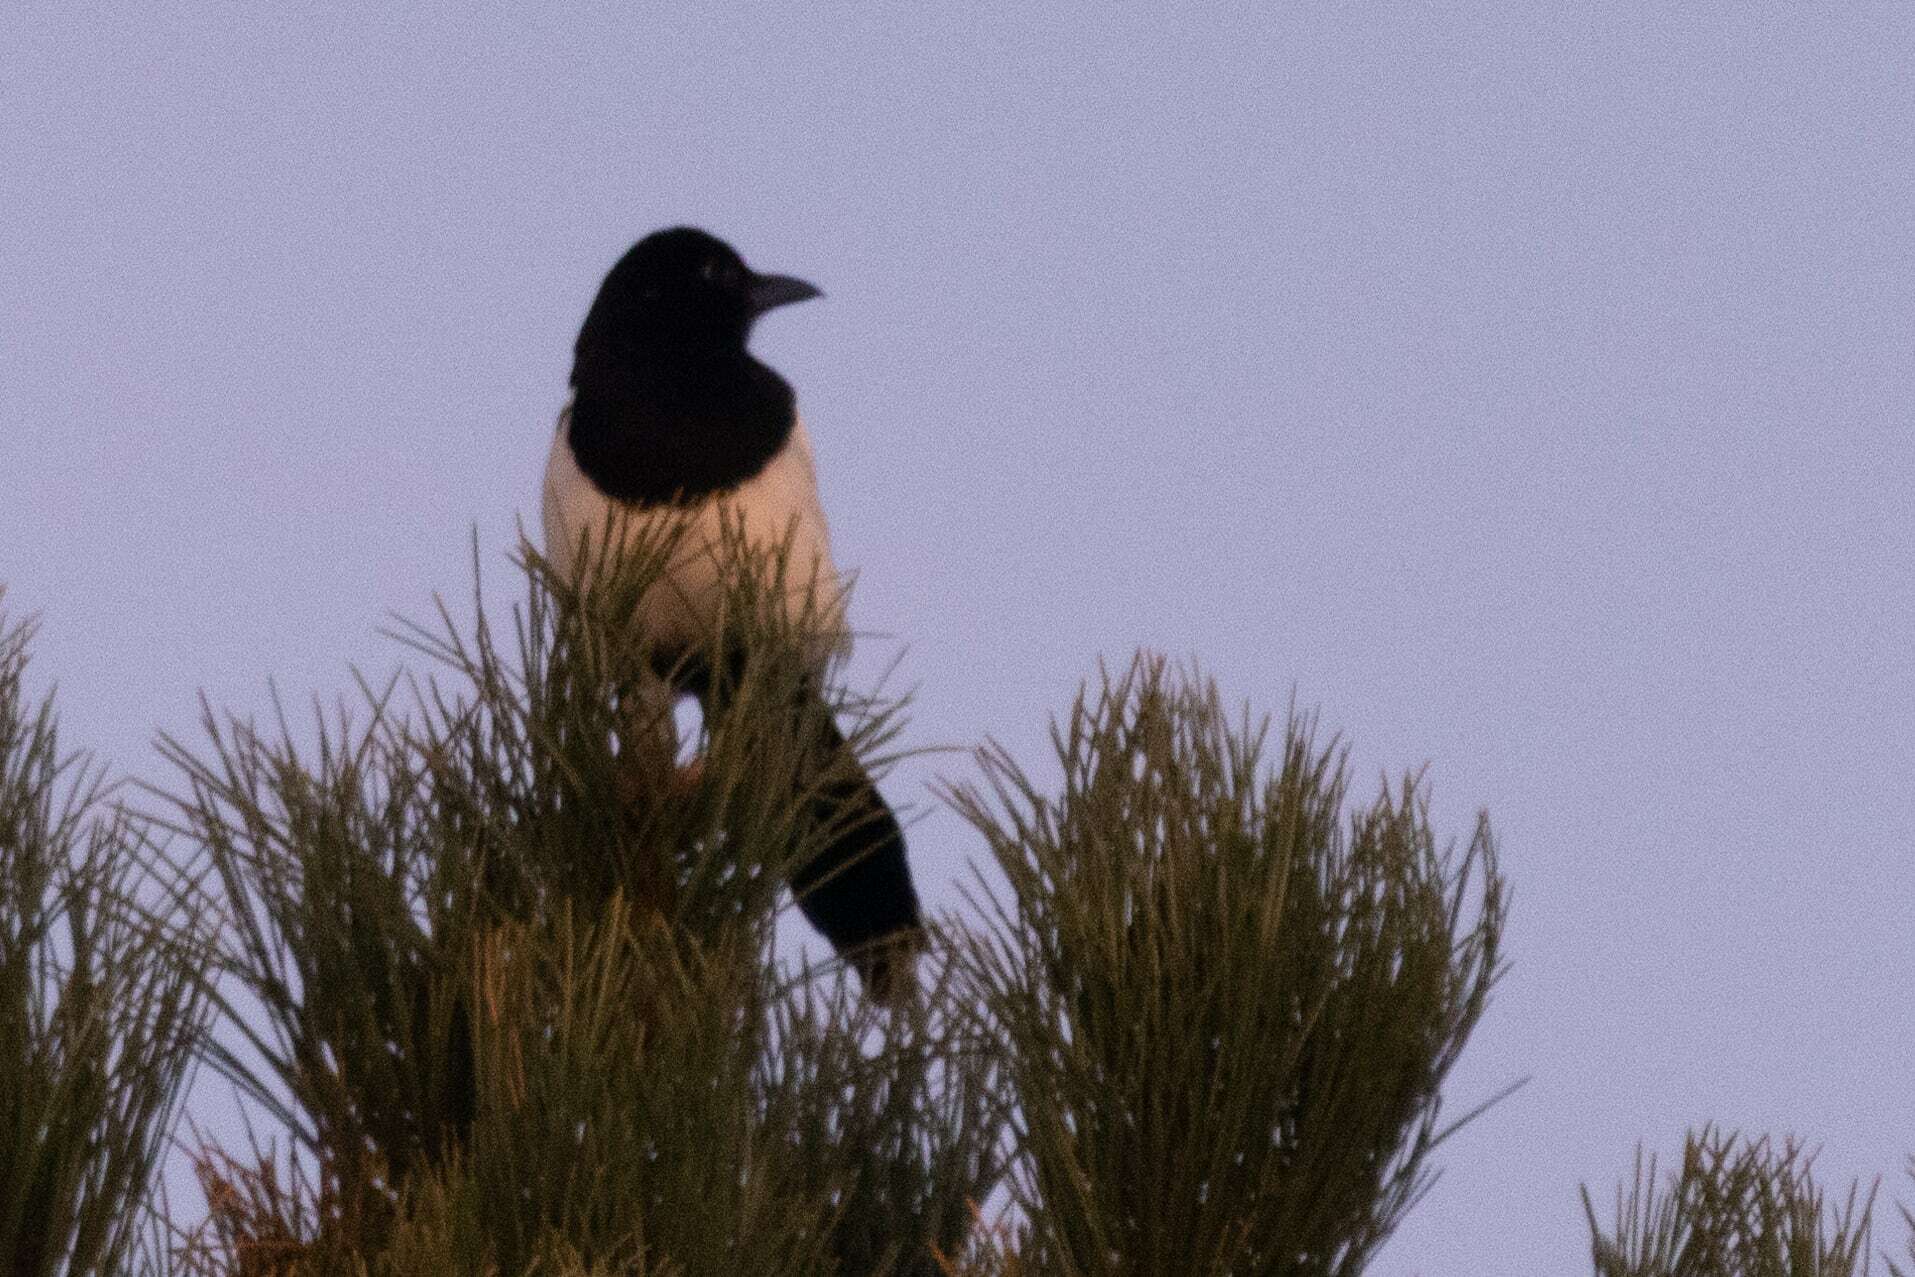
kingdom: Animalia
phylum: Chordata
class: Aves
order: Passeriformes
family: Corvidae
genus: Pica
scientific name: Pica pica
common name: Eurasian magpie
